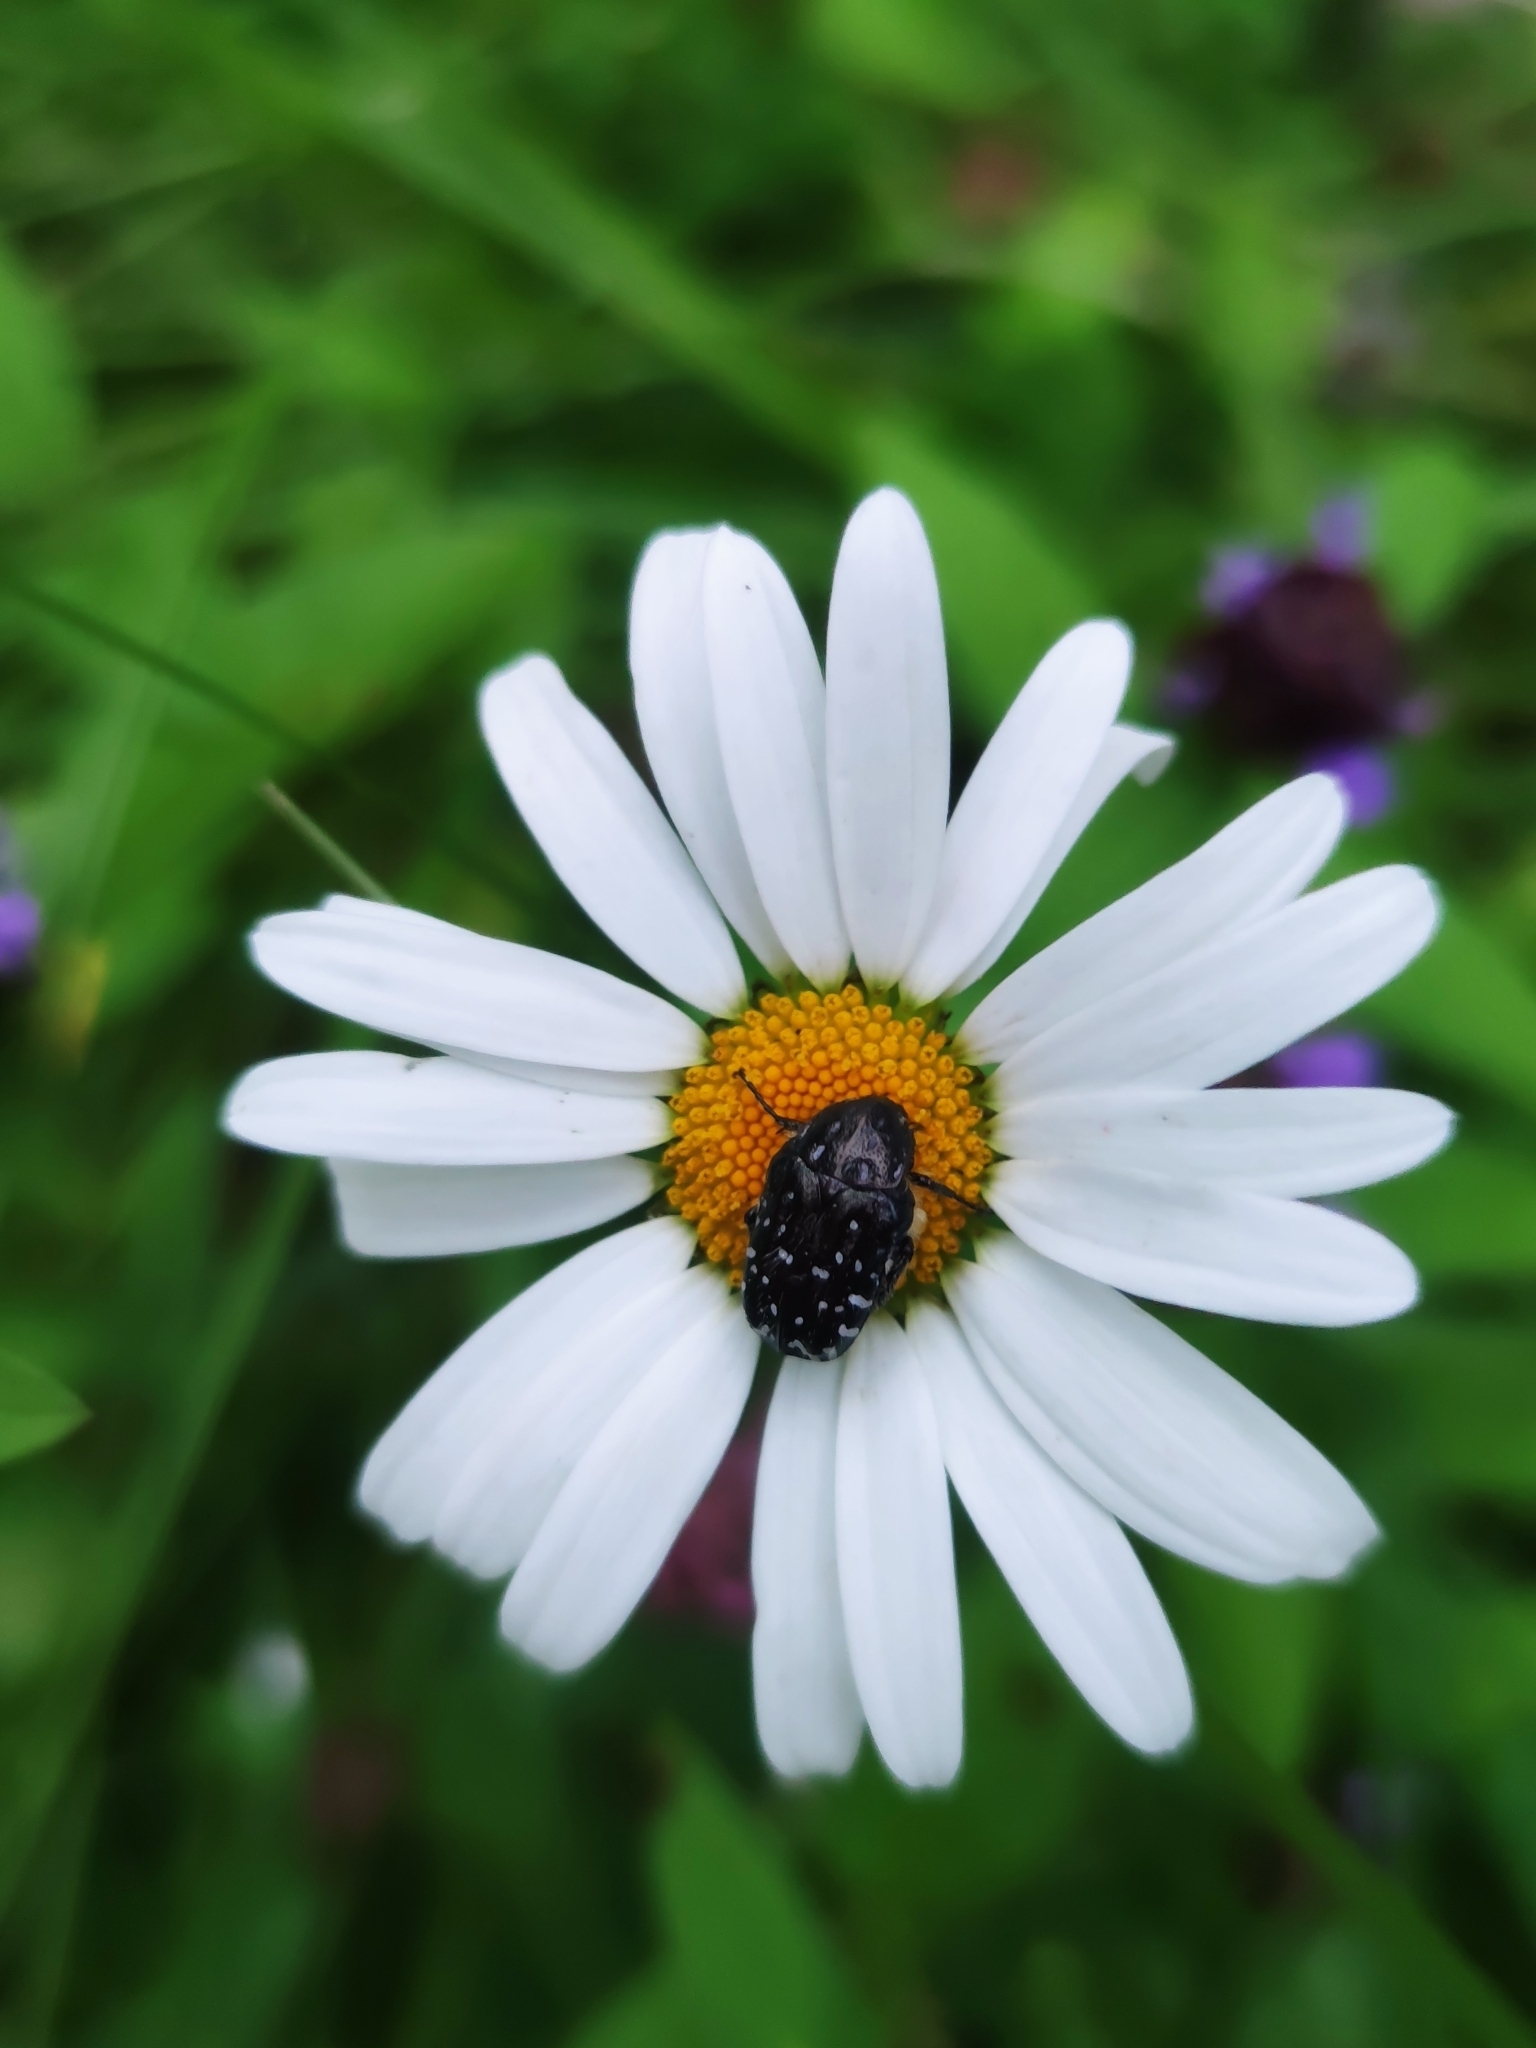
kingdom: Animalia
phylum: Arthropoda
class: Insecta
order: Coleoptera
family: Scarabaeidae
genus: Oxythyrea
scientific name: Oxythyrea funesta
